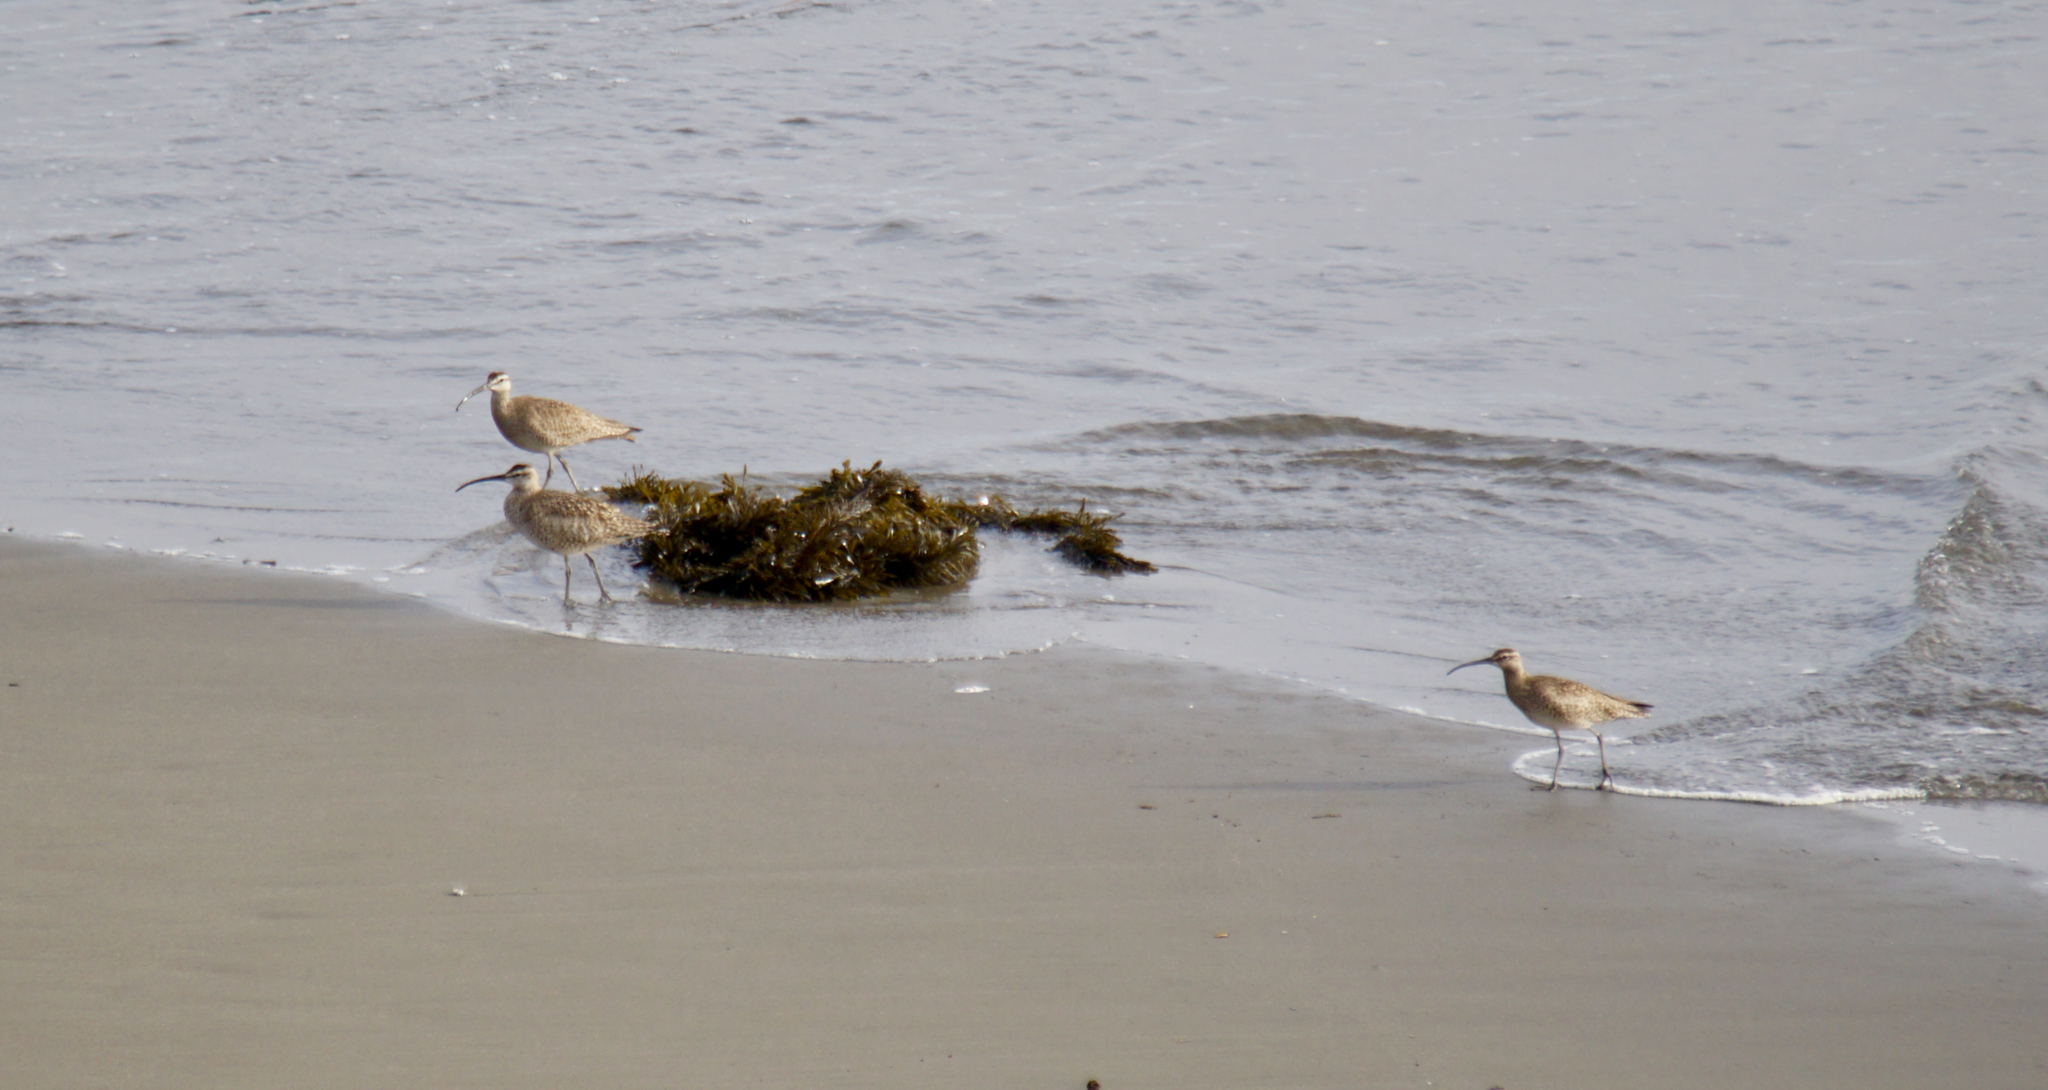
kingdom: Animalia
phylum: Chordata
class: Aves
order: Charadriiformes
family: Scolopacidae
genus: Numenius
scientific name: Numenius phaeopus
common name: Whimbrel
